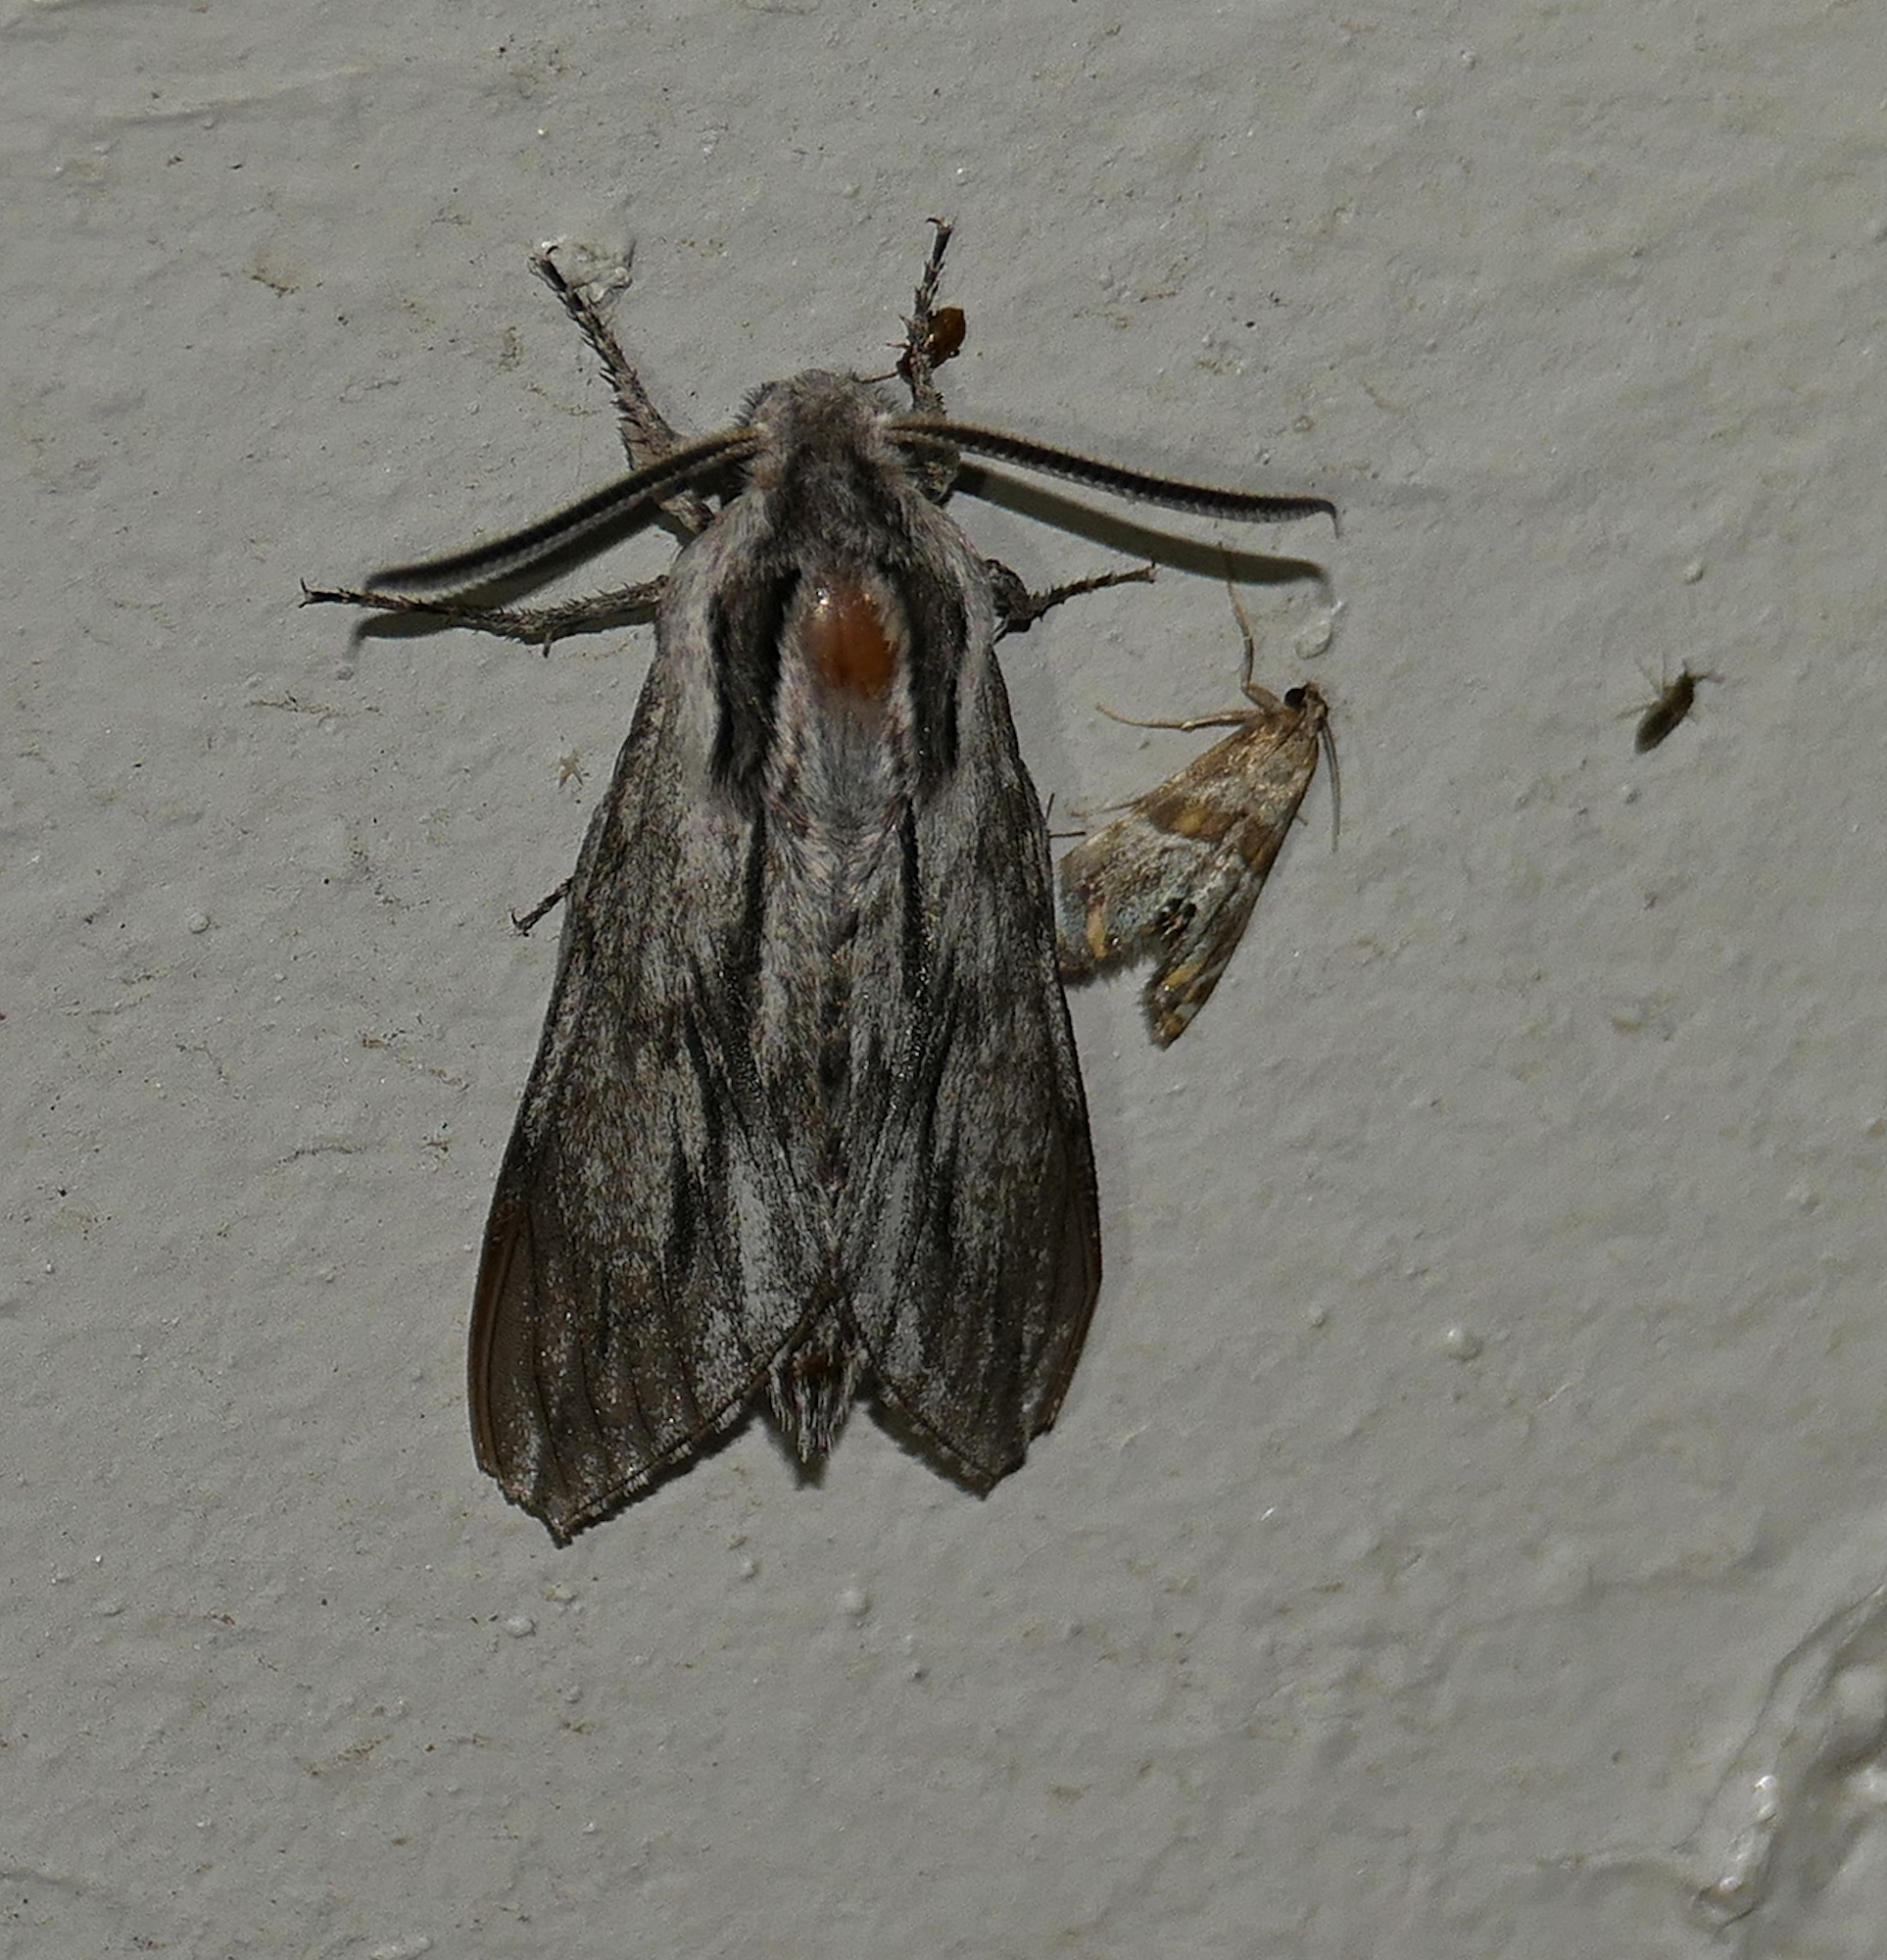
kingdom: Animalia
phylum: Arthropoda
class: Insecta
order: Lepidoptera
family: Sphingidae
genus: Sphinx
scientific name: Sphinx dollii
